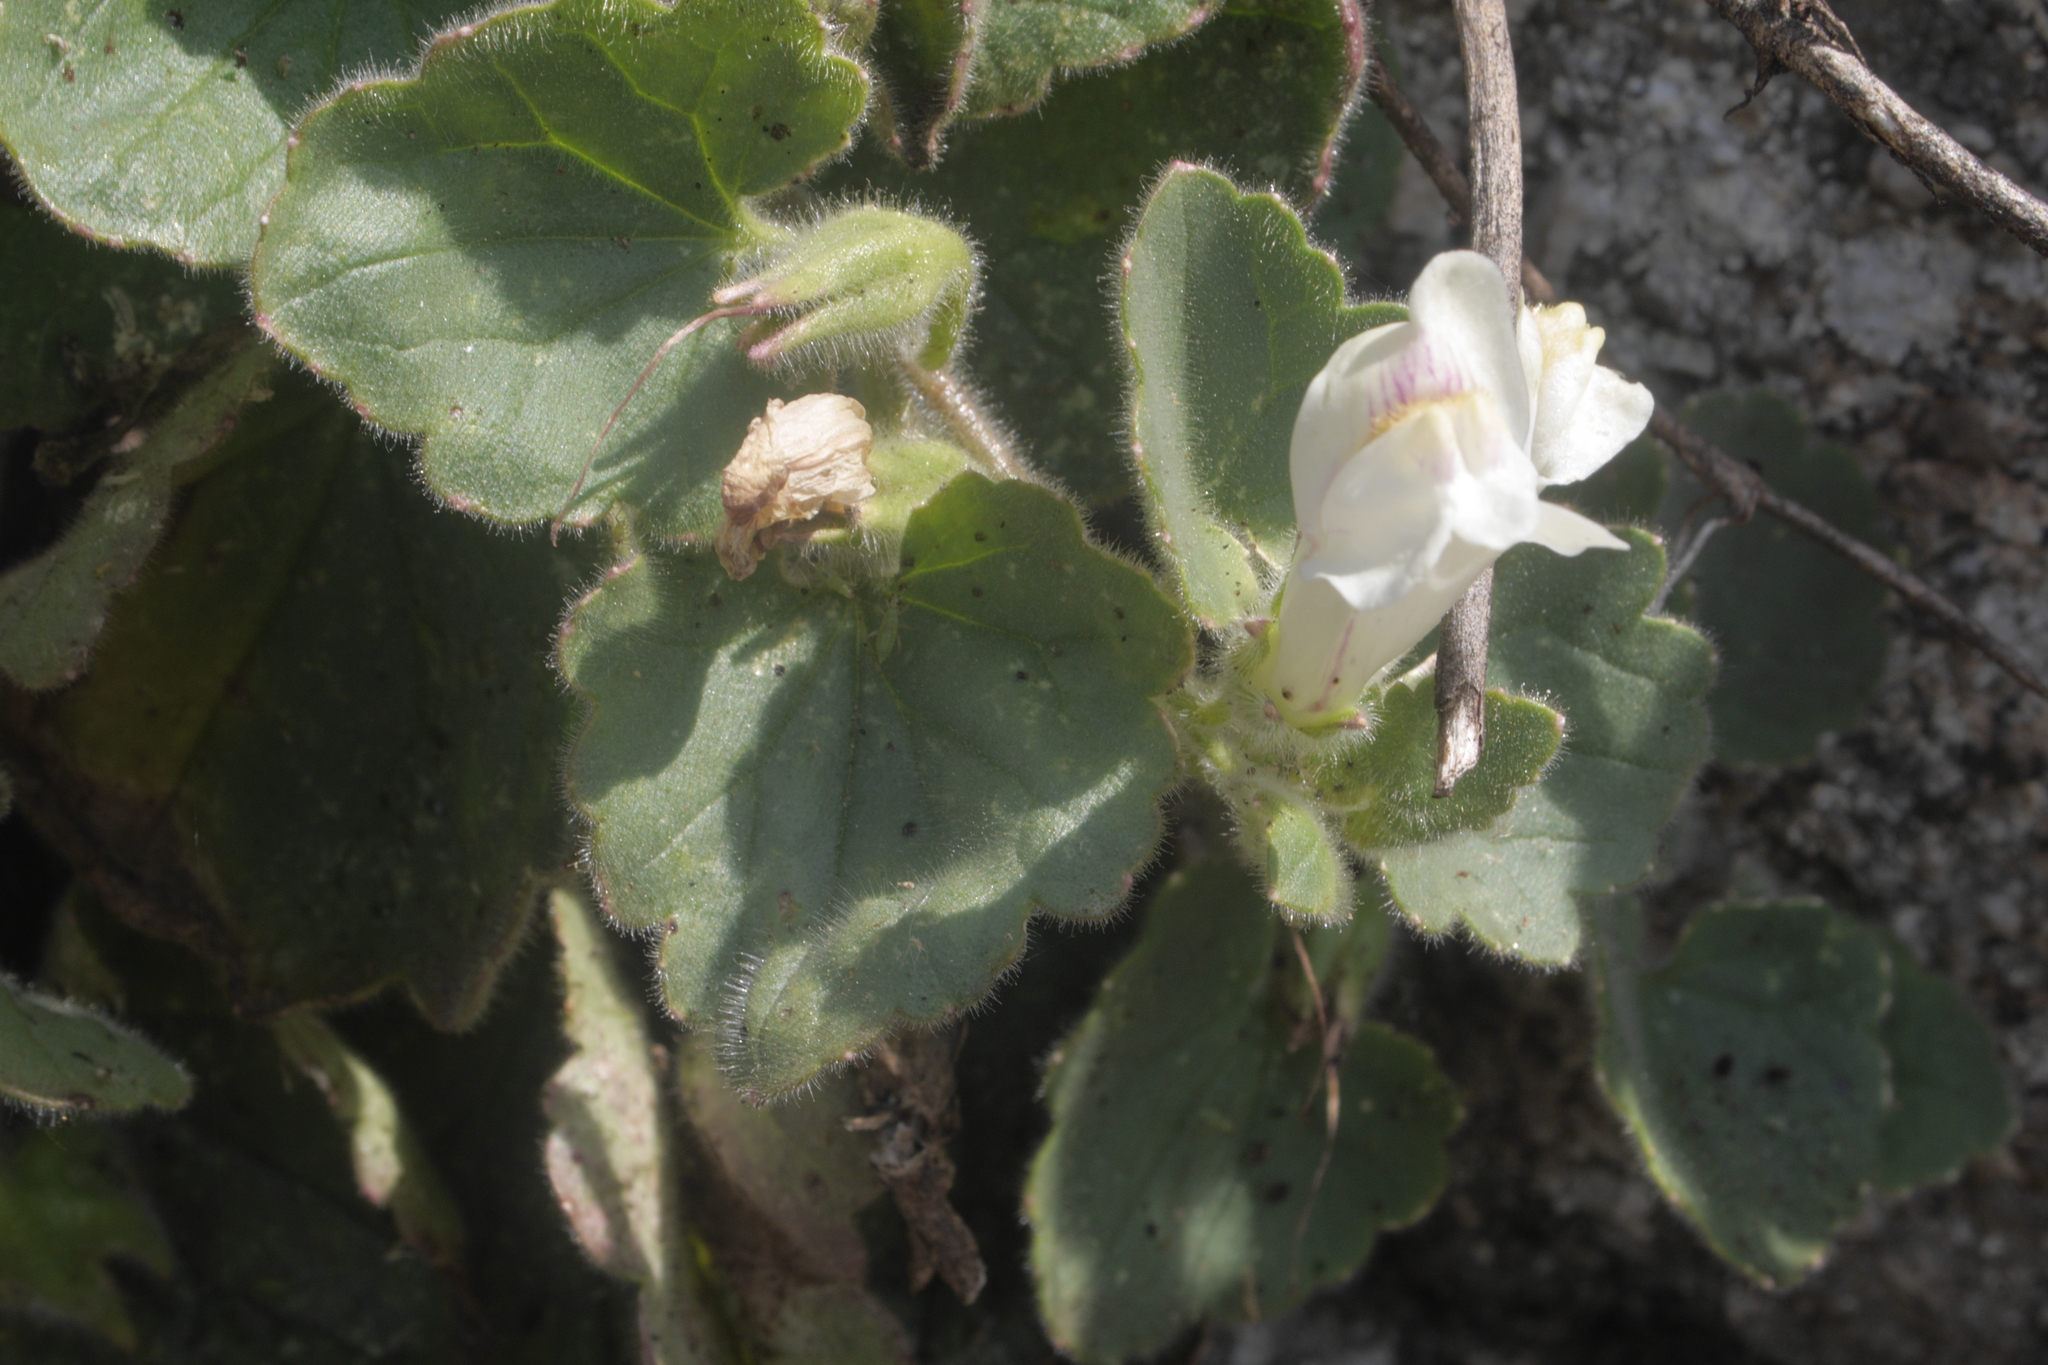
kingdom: Plantae
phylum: Tracheophyta
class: Magnoliopsida
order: Lamiales
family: Plantaginaceae
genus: Asarina
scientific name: Asarina procumbens
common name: Trailing snapdragon
